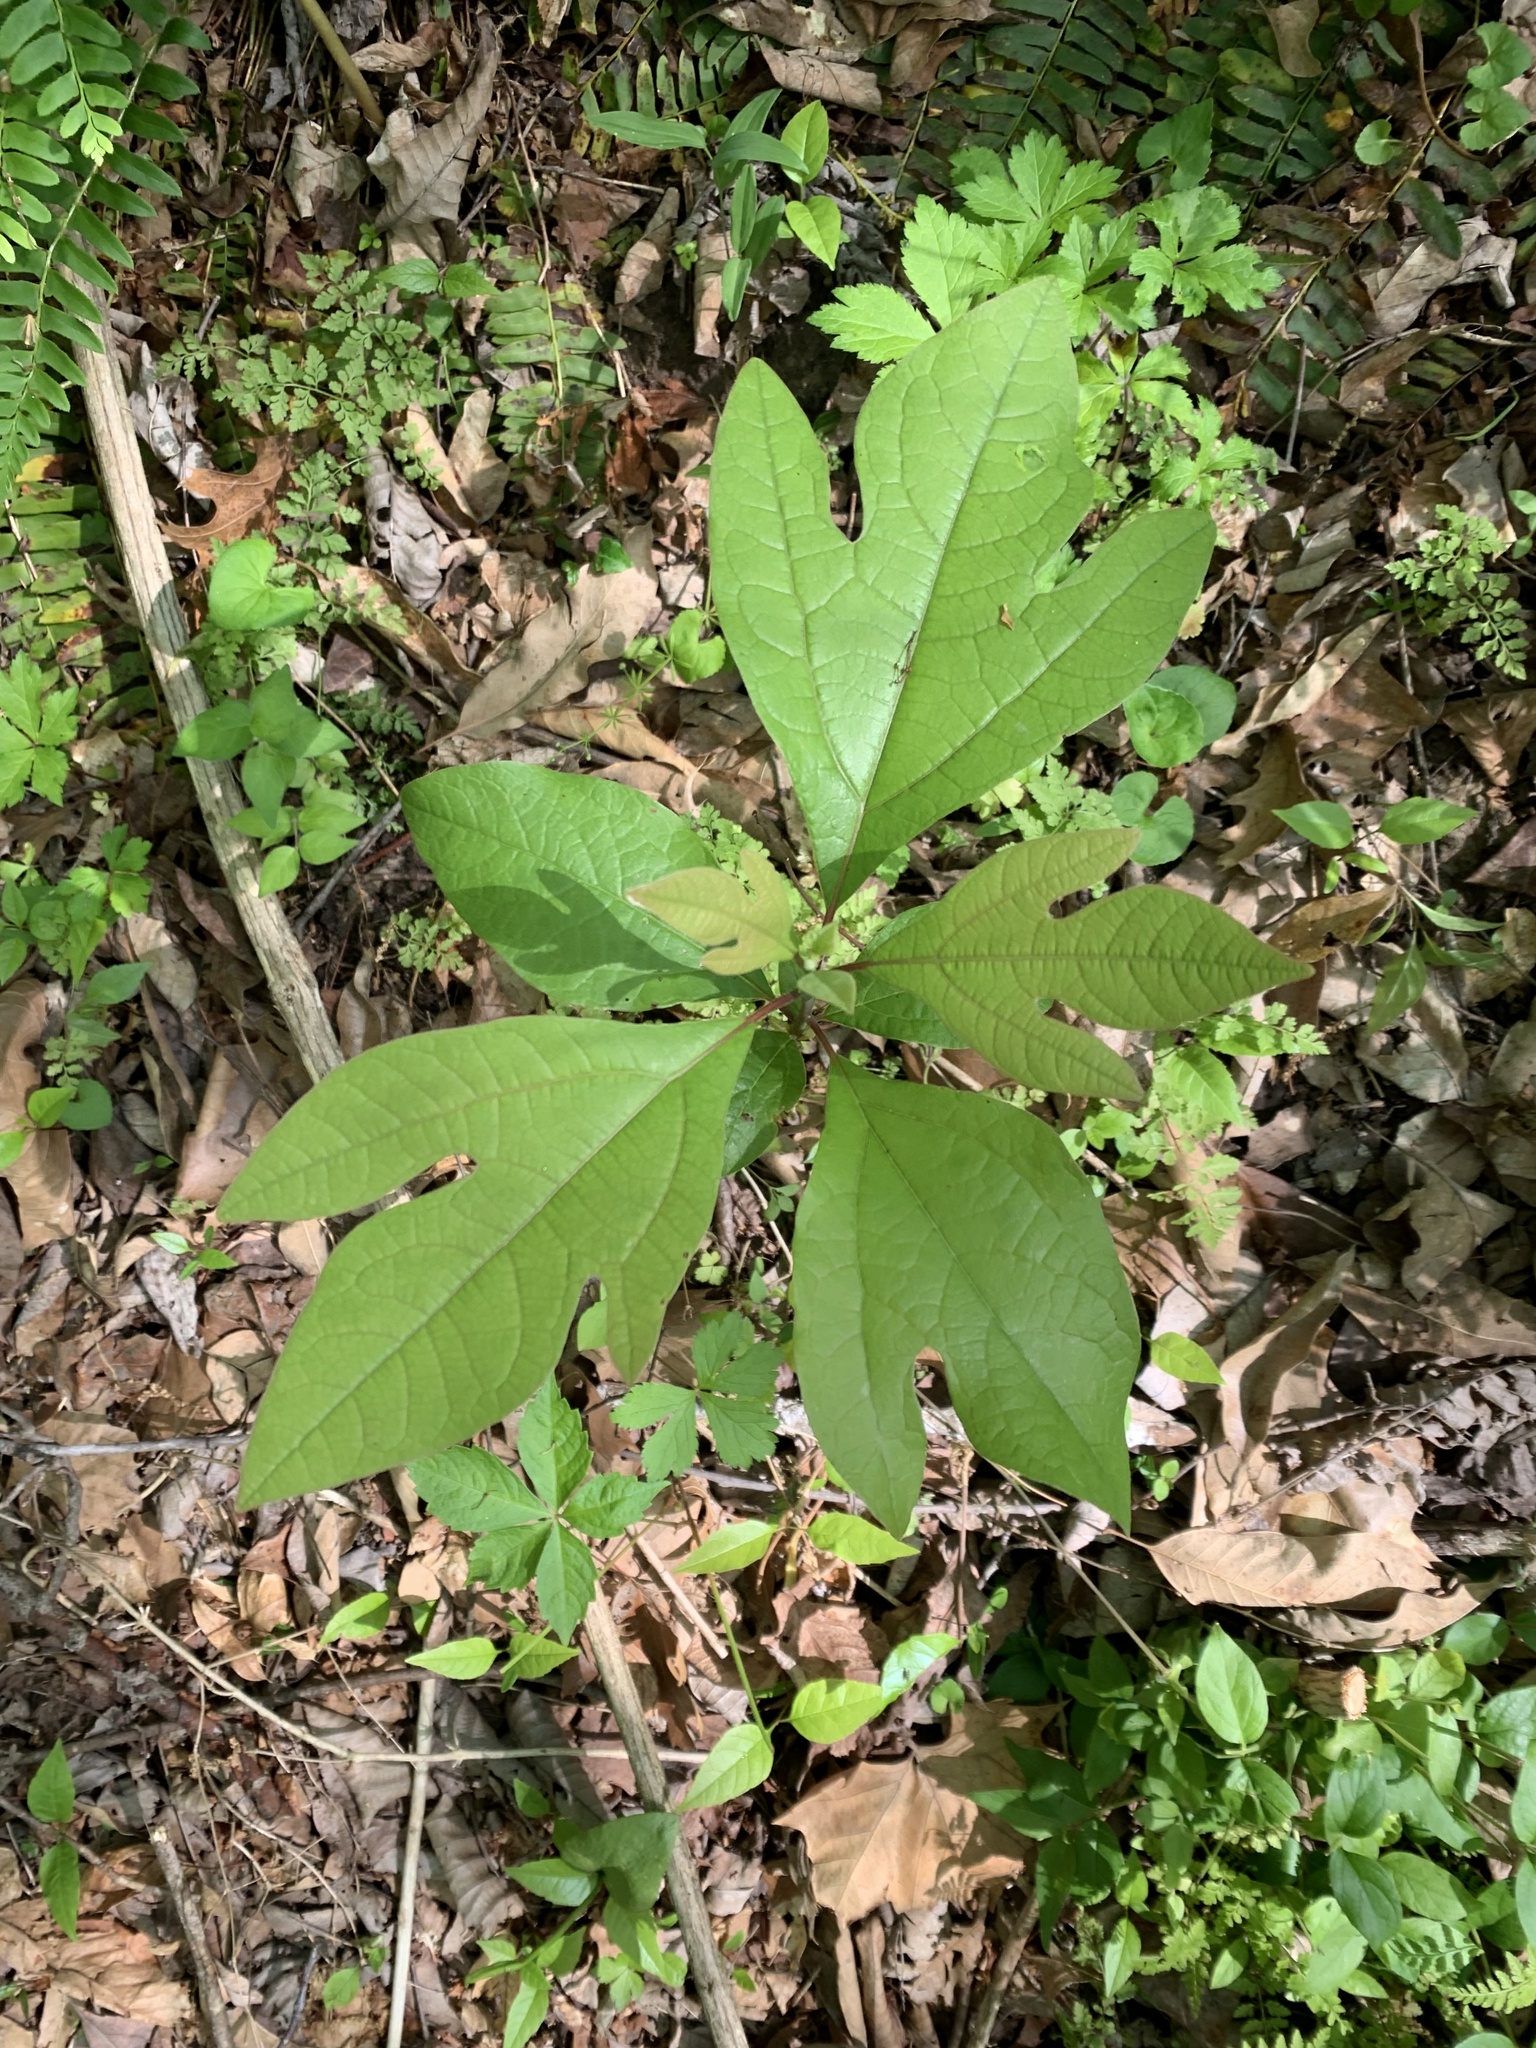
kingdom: Plantae
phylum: Tracheophyta
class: Magnoliopsida
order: Laurales
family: Lauraceae
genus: Sassafras
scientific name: Sassafras albidum
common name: Sassafras
